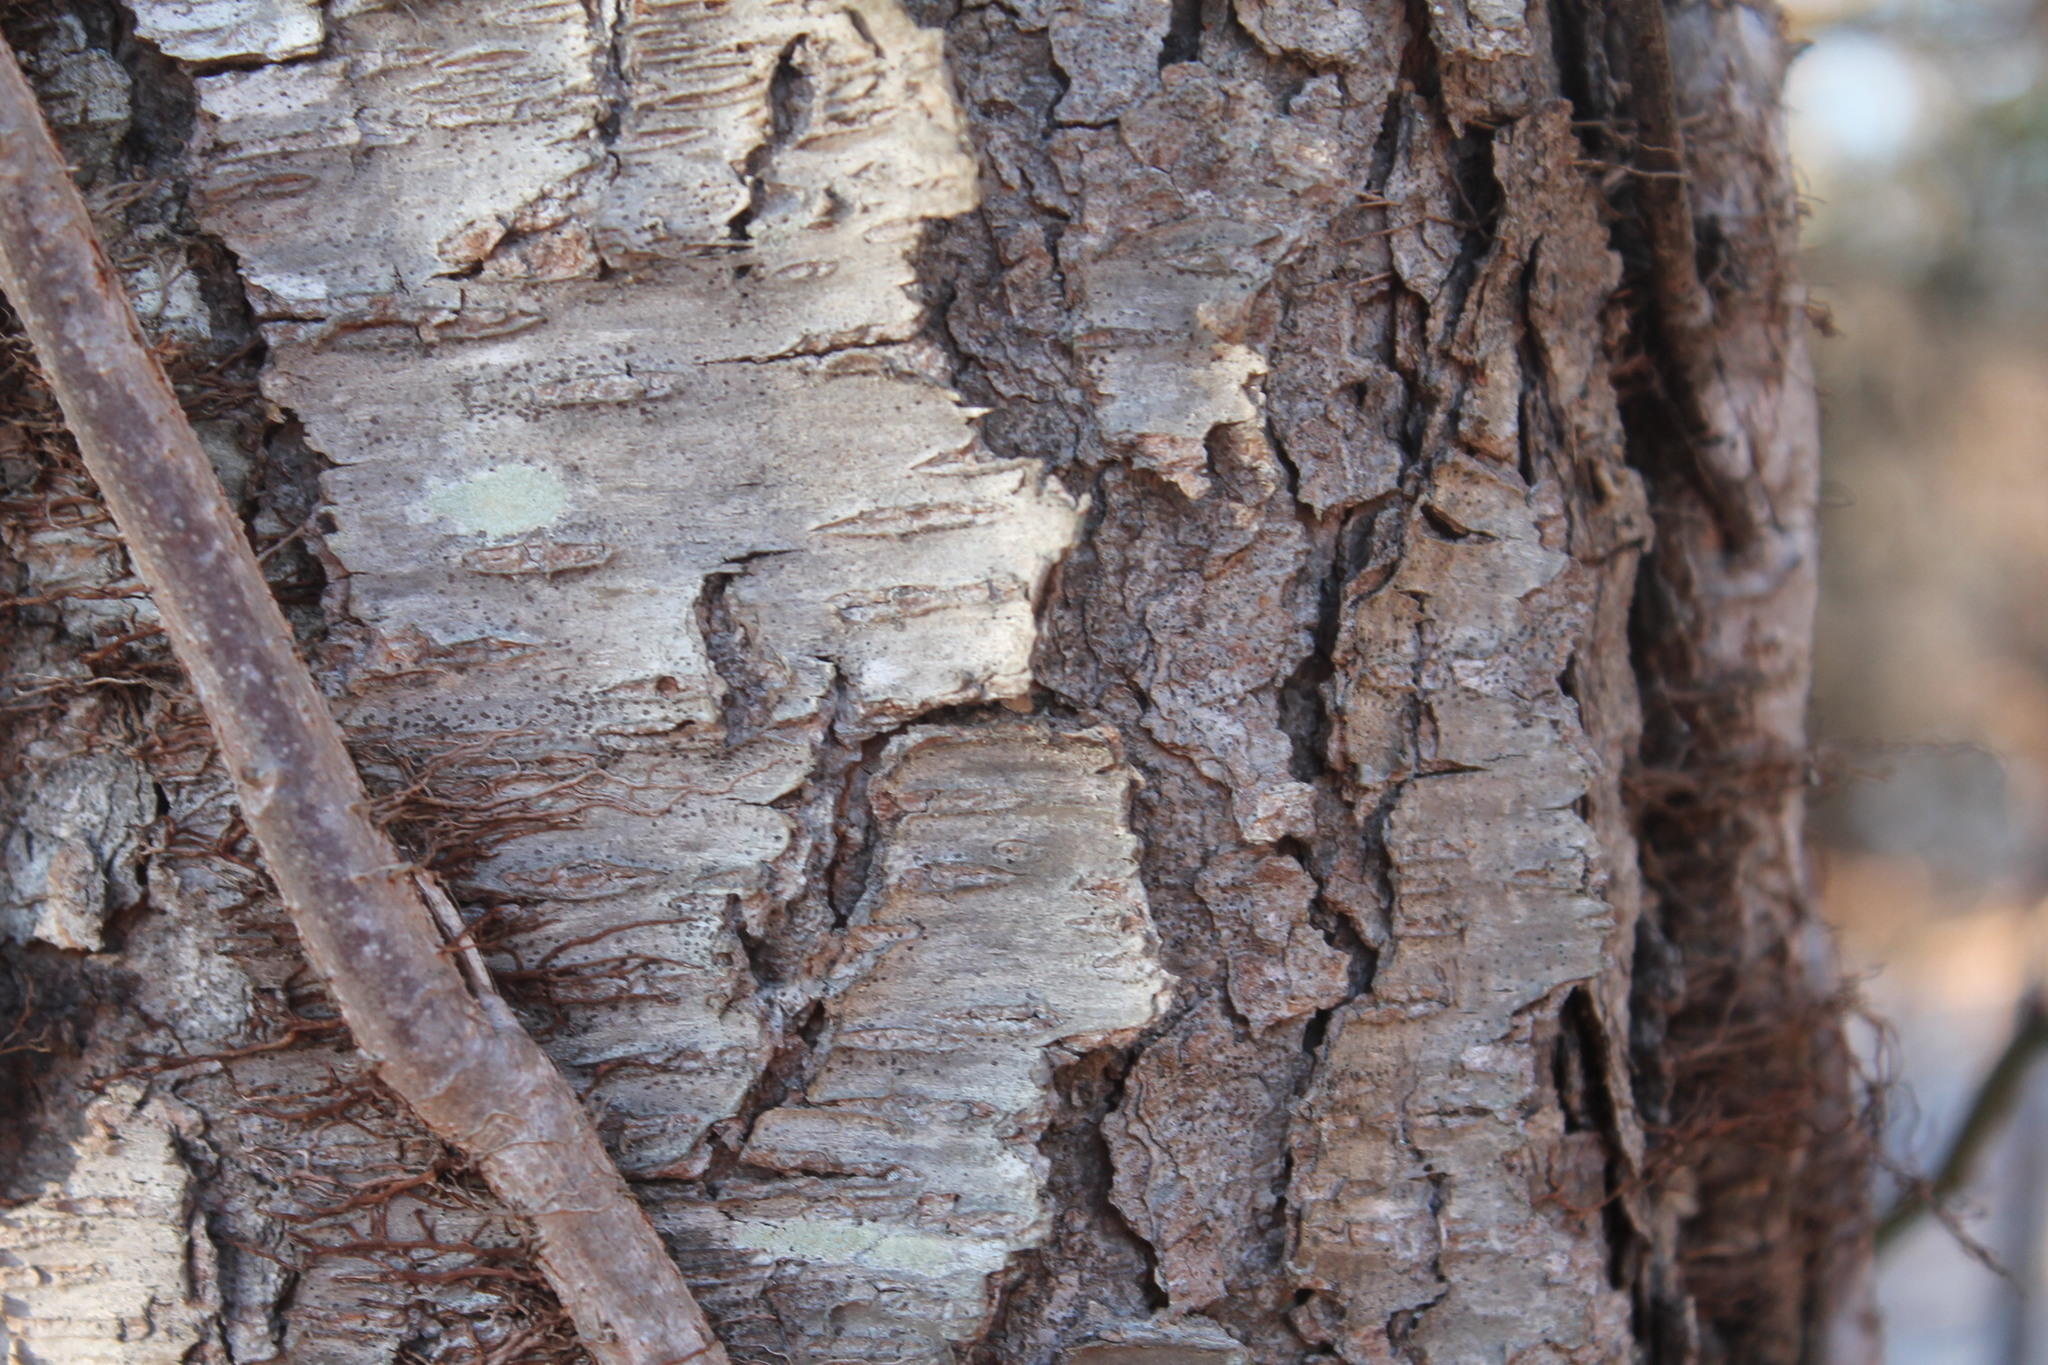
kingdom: Plantae
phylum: Tracheophyta
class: Magnoliopsida
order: Rosales
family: Rosaceae
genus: Prunus
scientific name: Prunus serotina
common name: Black cherry
